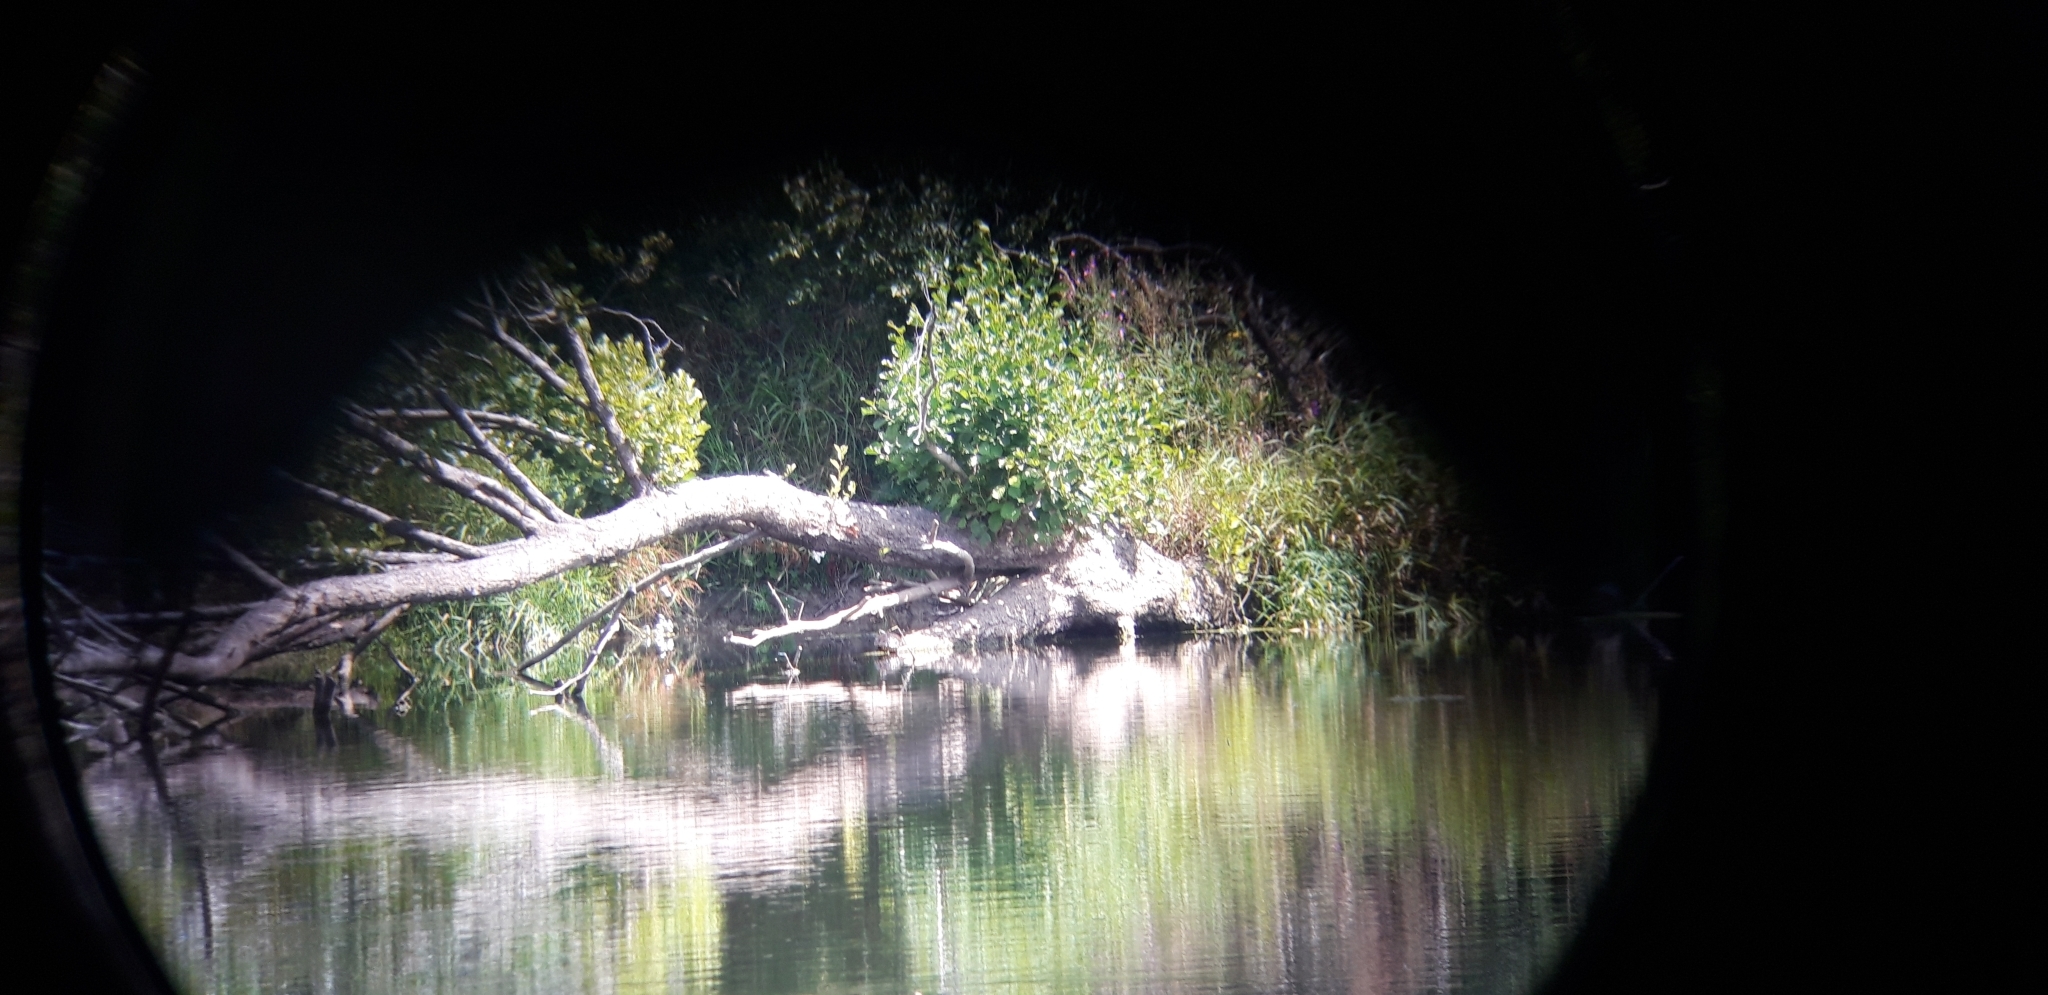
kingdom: Animalia
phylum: Chordata
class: Testudines
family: Emydidae
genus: Trachemys
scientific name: Trachemys scripta
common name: Slider
